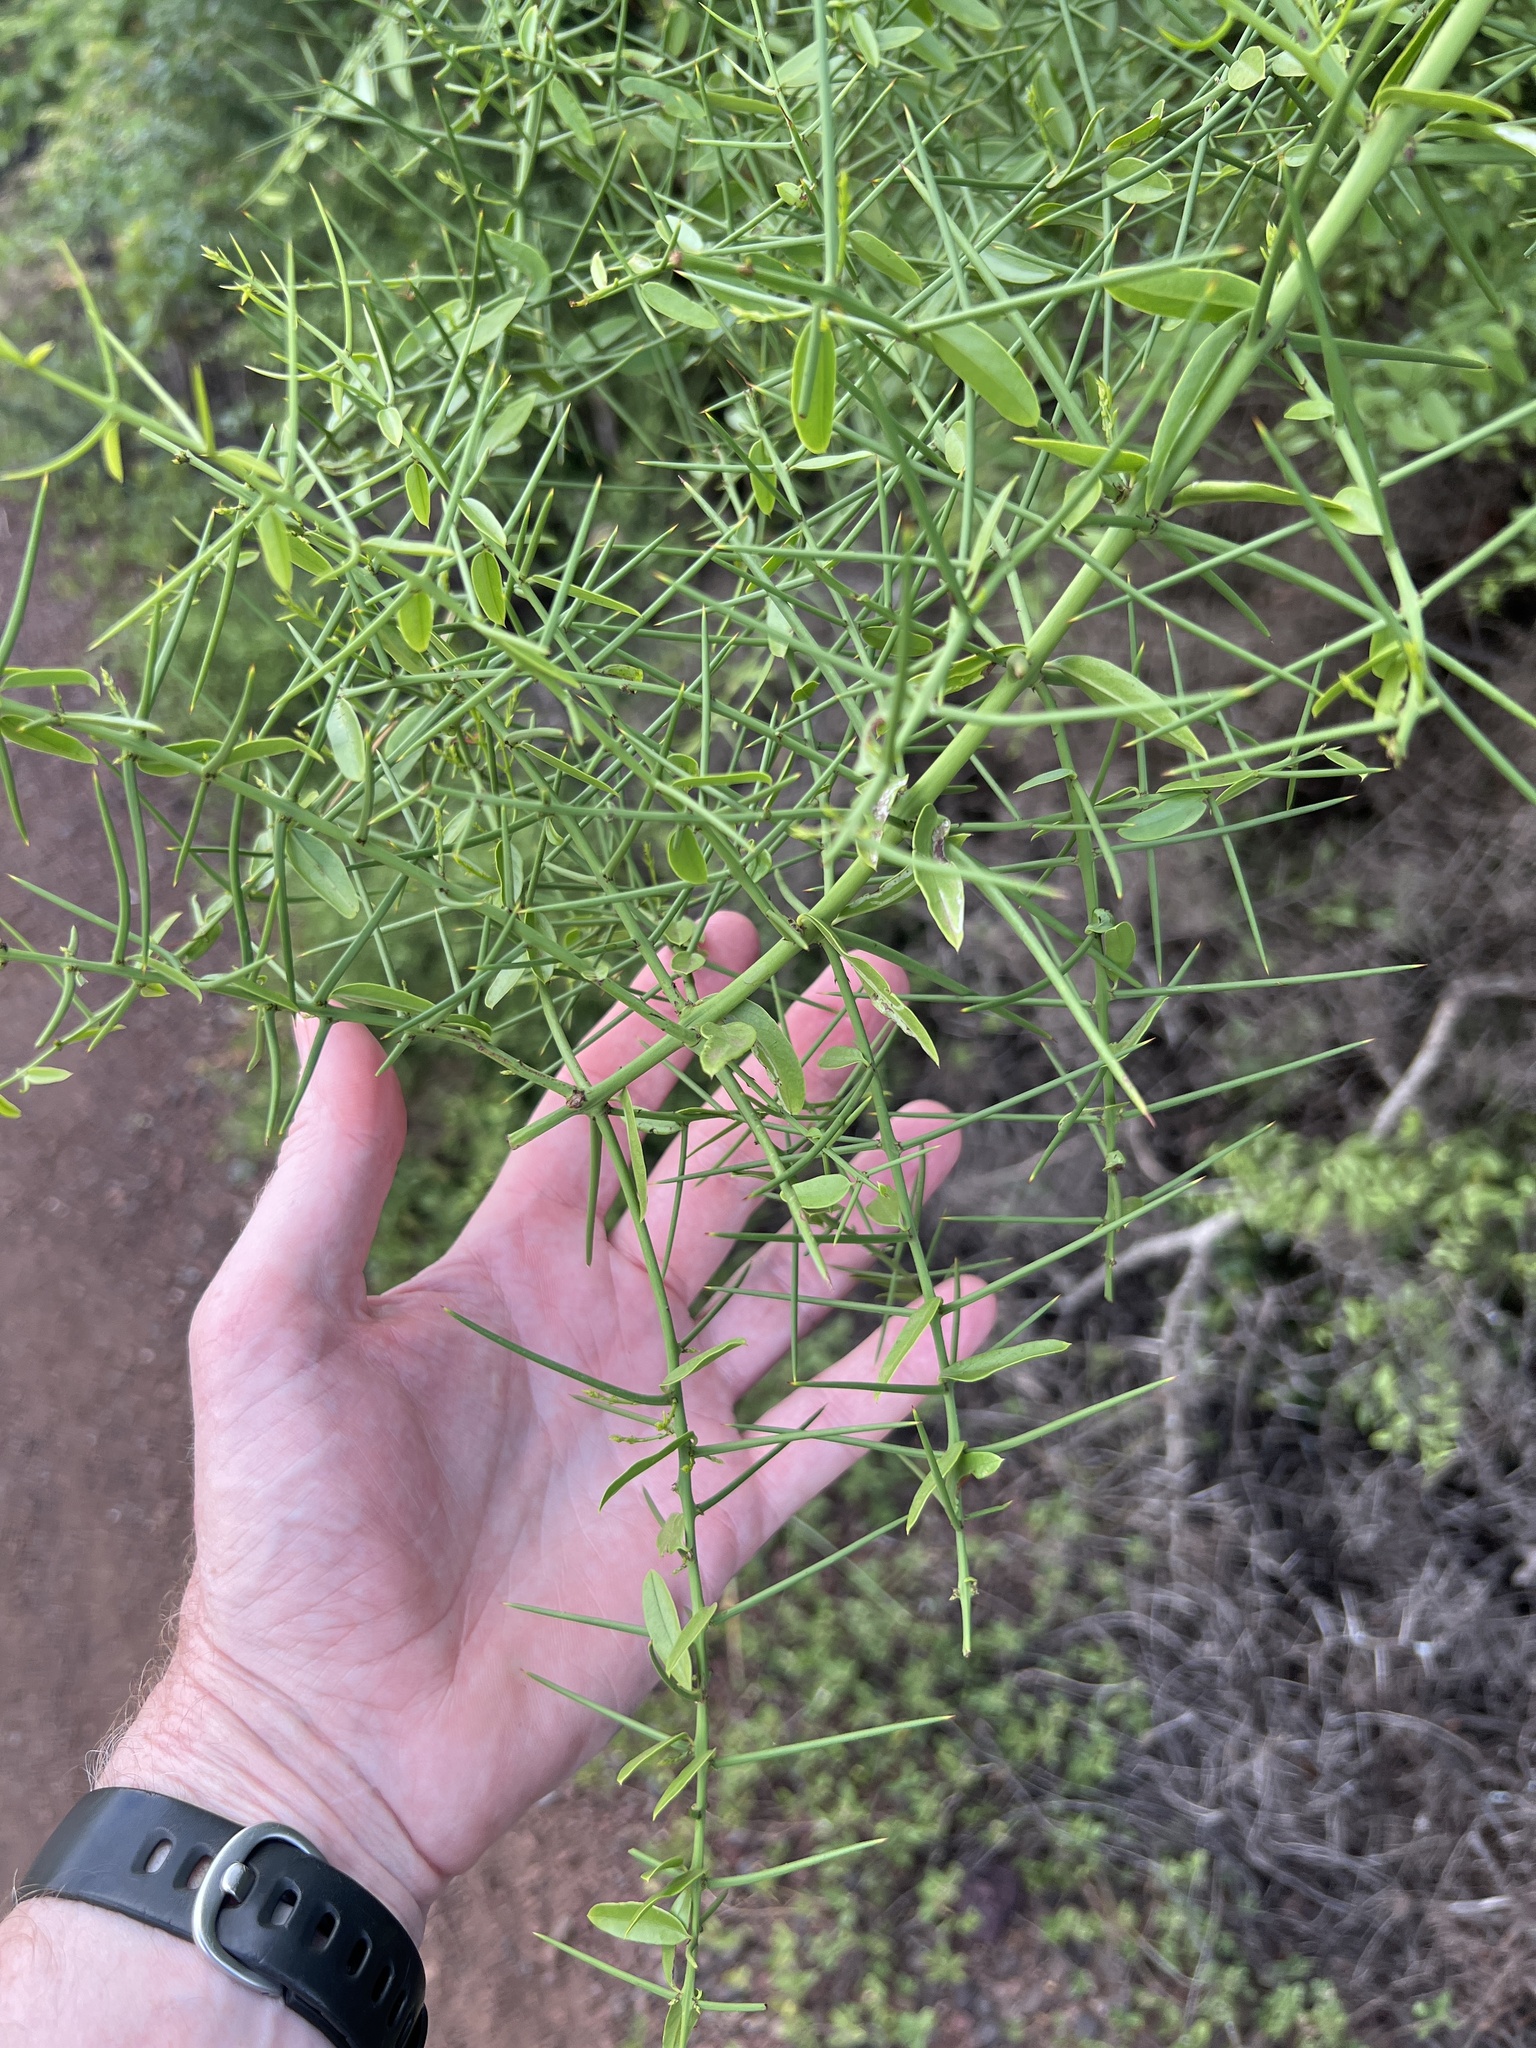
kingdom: Plantae
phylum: Tracheophyta
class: Magnoliopsida
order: Rosales
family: Rhamnaceae
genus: Scutia
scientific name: Scutia spicata
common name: Spiny bush
